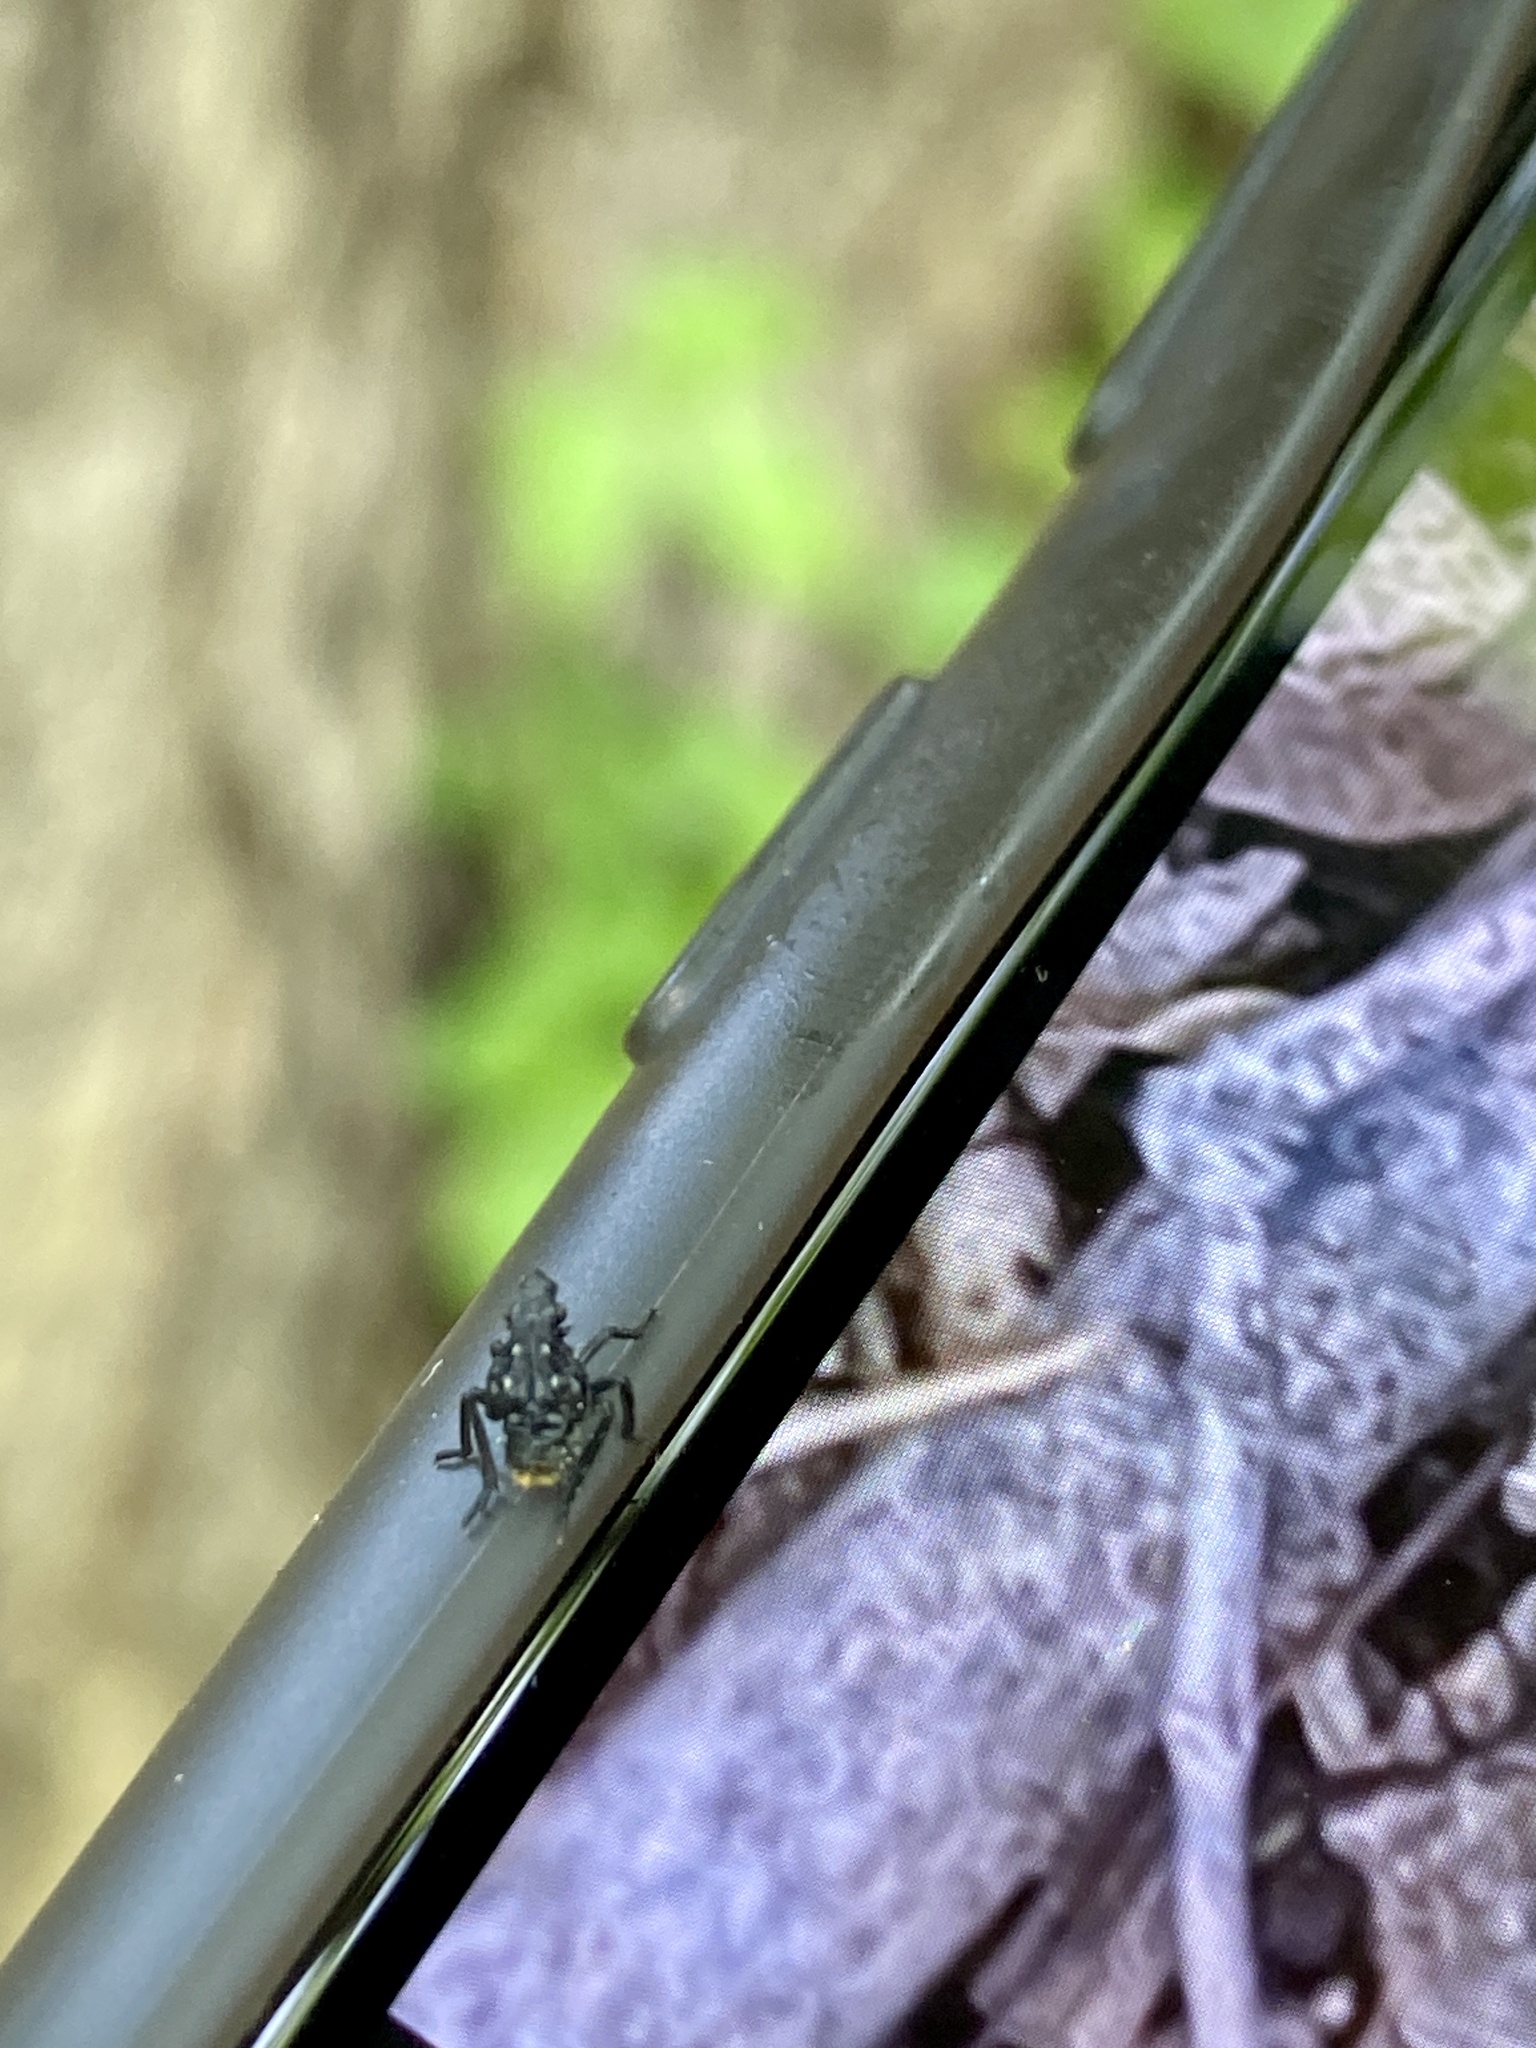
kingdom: Animalia
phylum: Arthropoda
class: Insecta
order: Hemiptera
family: Fulgoridae
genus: Lycorma
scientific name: Lycorma delicatula
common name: Spotted lanternfly
